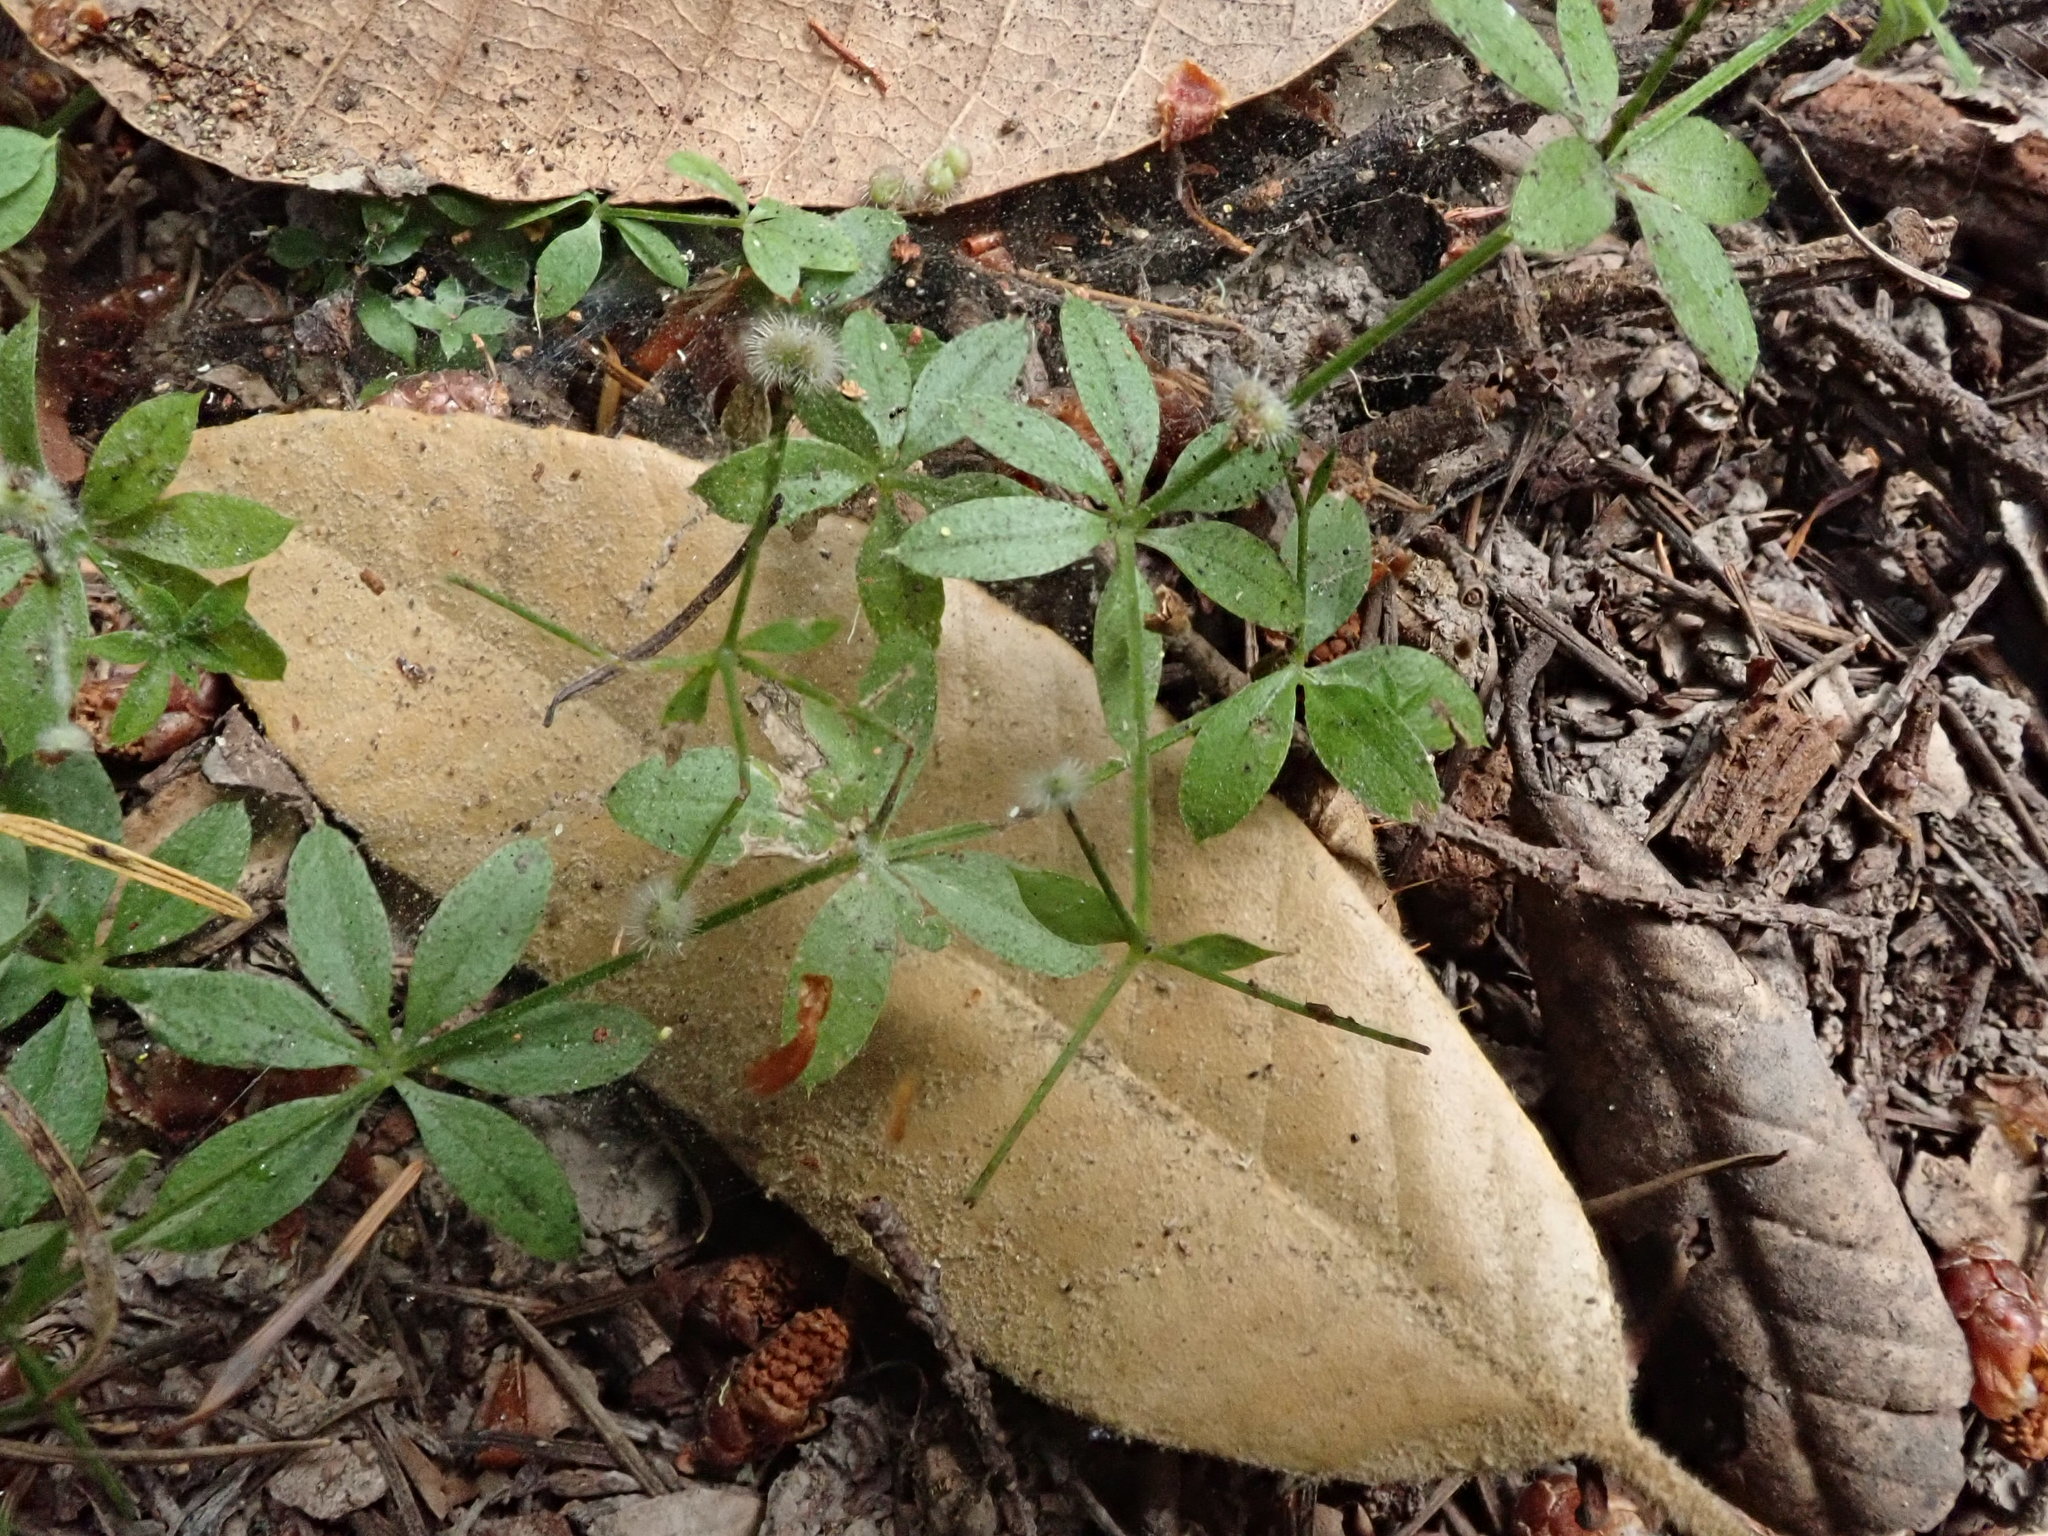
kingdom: Plantae
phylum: Tracheophyta
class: Magnoliopsida
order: Gentianales
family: Rubiaceae
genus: Galium
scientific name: Galium triflorum
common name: Fragrant bedstraw
